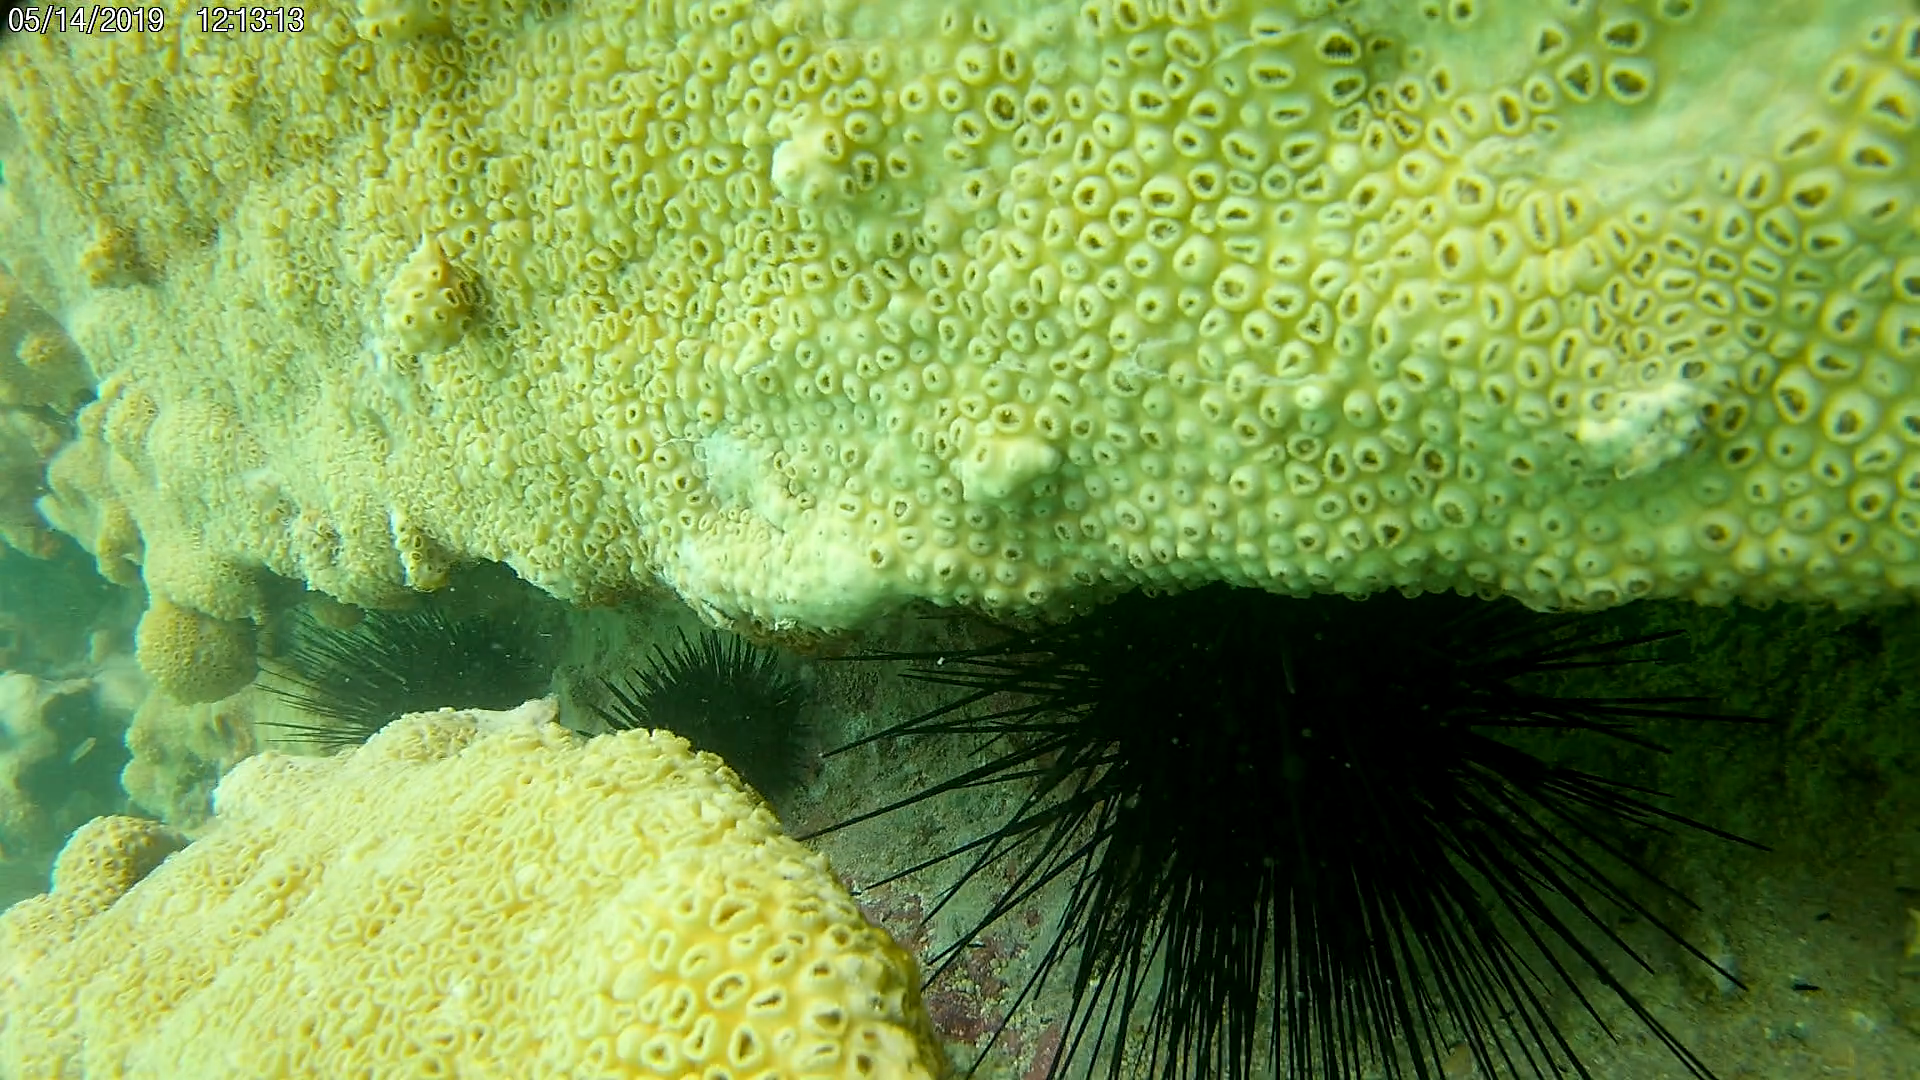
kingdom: Animalia
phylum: Echinodermata
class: Echinoidea
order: Diadematoida
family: Diadematidae
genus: Diadema
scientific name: Diadema antillarum
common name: Spiny urchin
